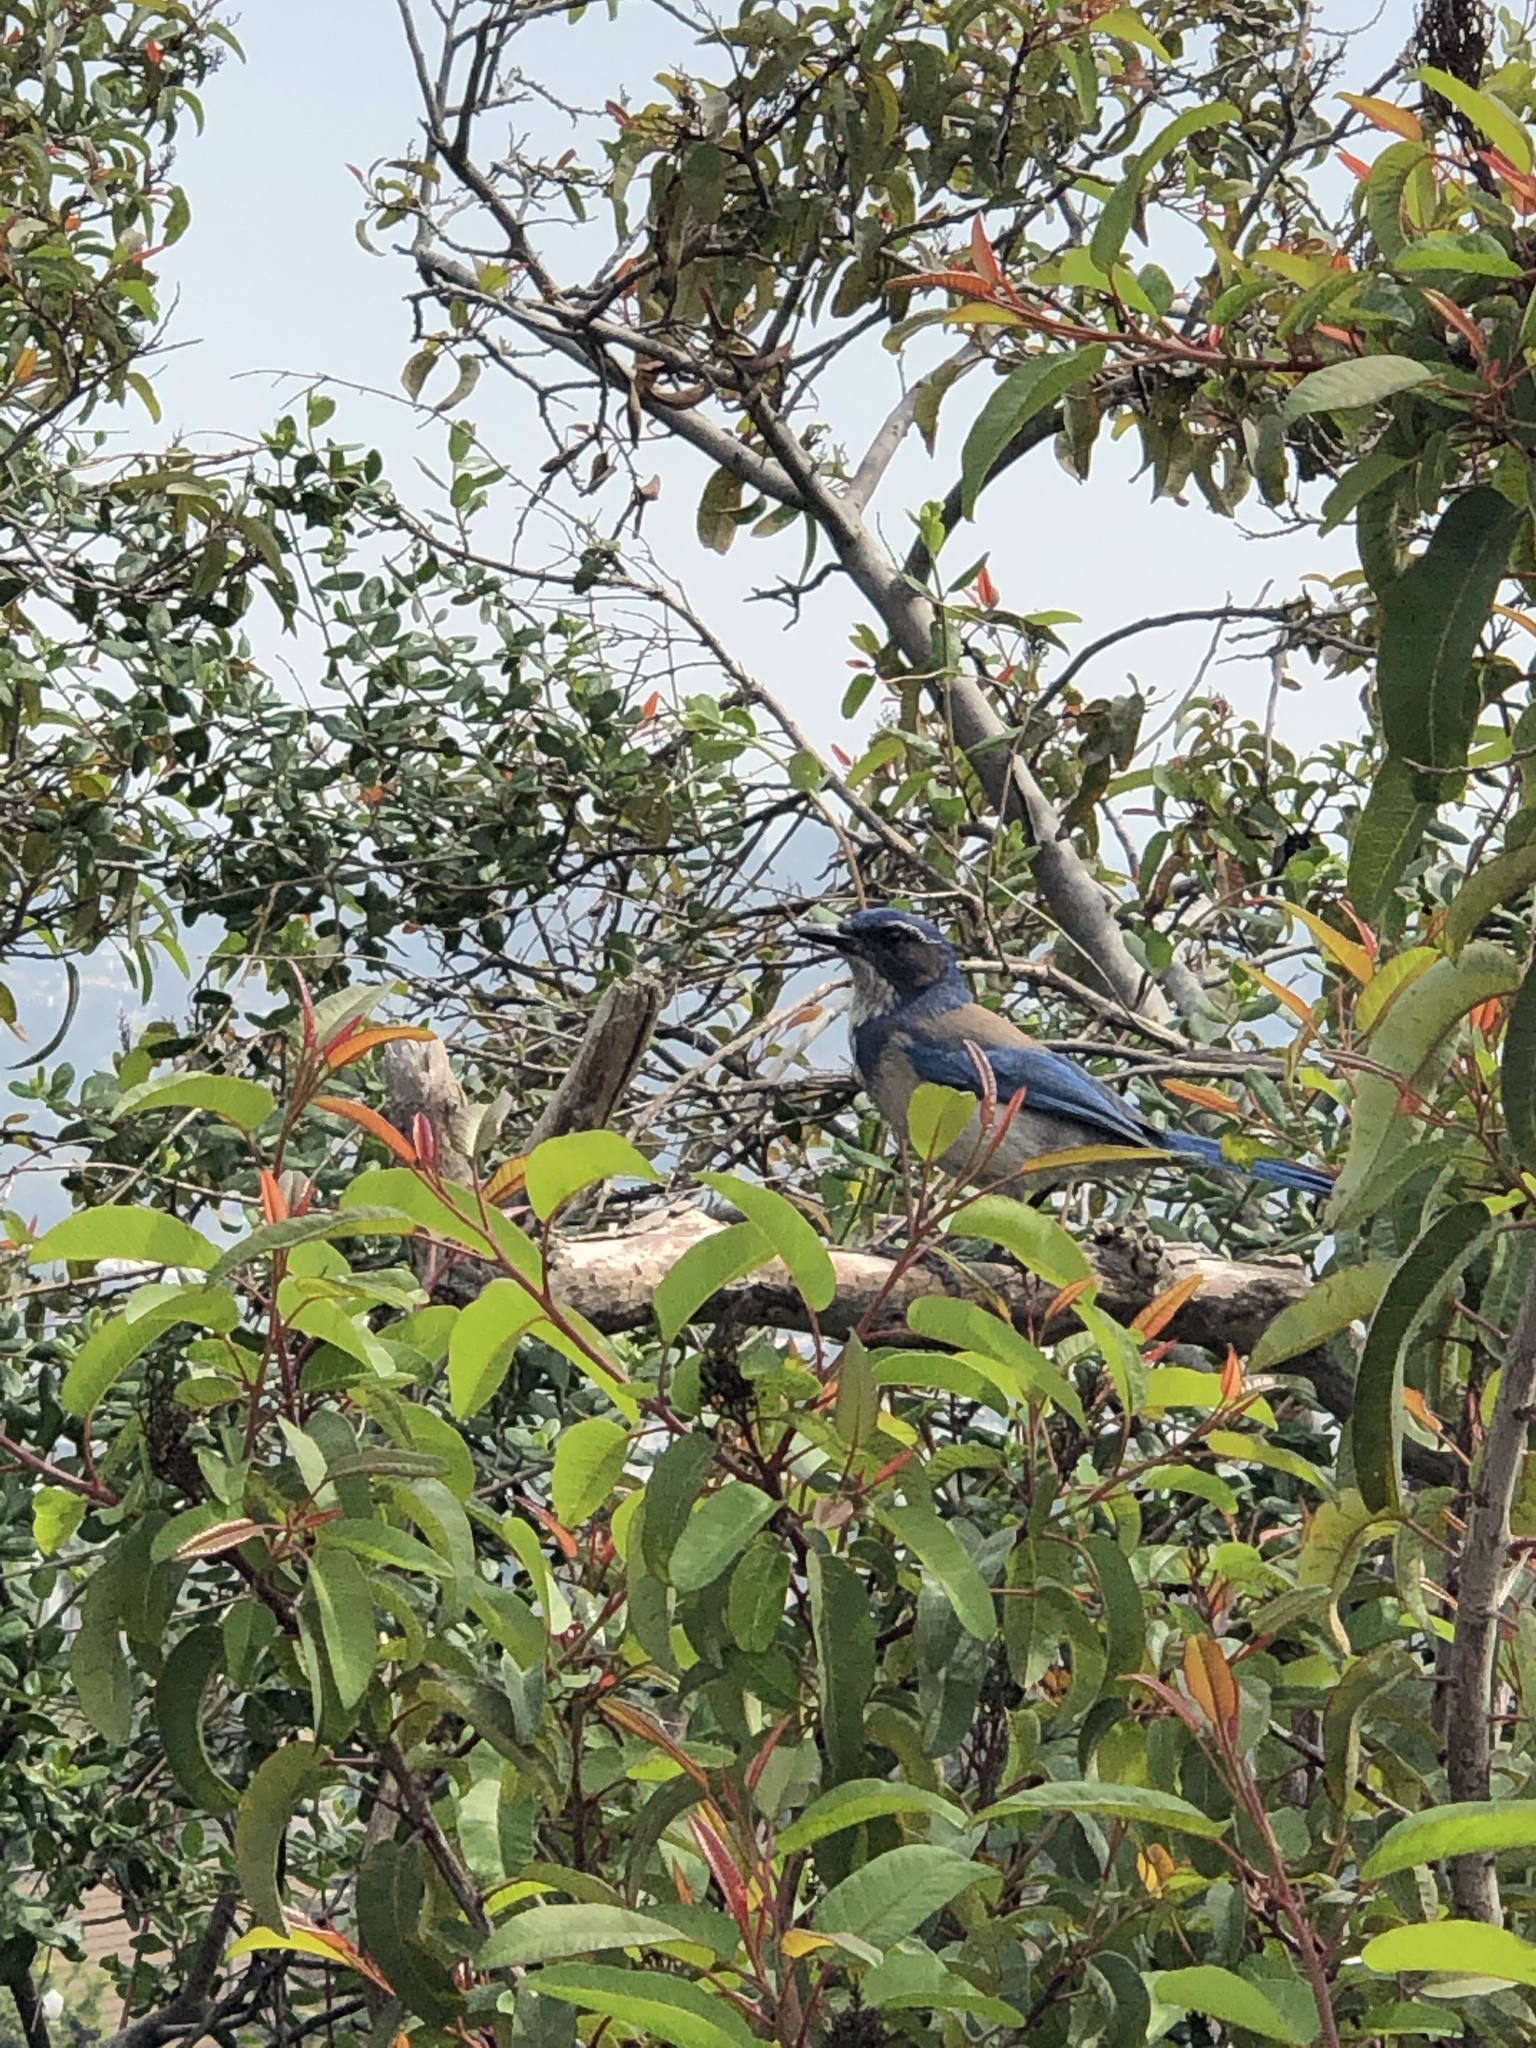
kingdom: Animalia
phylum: Chordata
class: Aves
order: Passeriformes
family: Corvidae
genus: Aphelocoma
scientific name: Aphelocoma californica
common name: California scrub-jay
